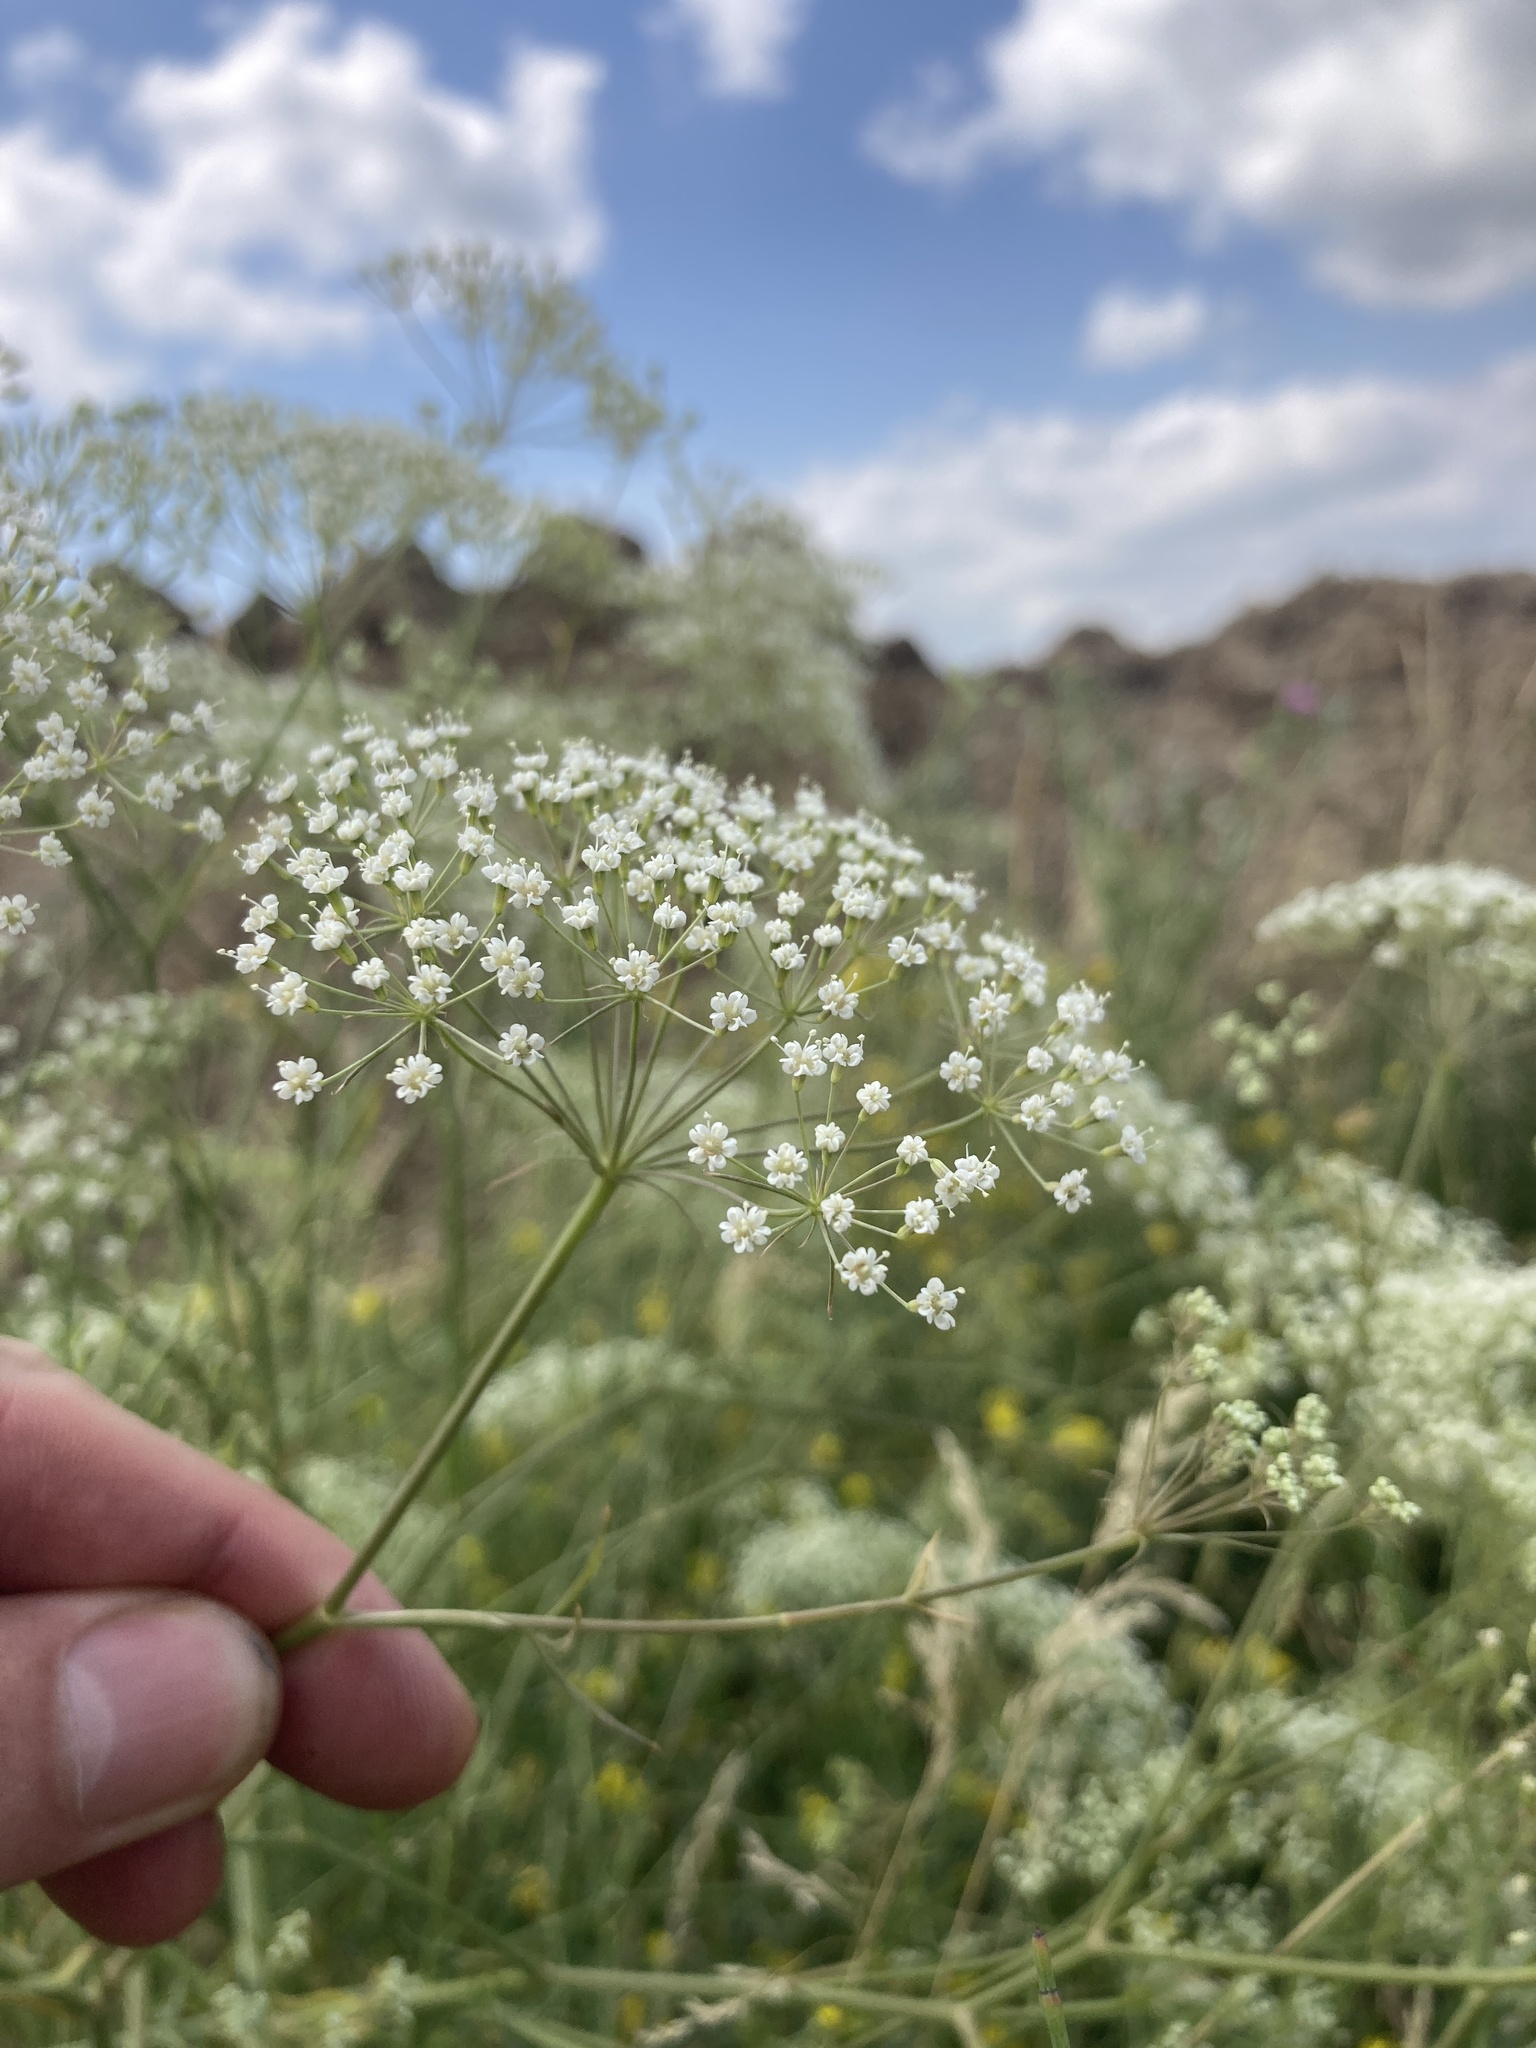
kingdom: Plantae
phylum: Tracheophyta
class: Magnoliopsida
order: Apiales
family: Apiaceae
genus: Falcaria
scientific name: Falcaria vulgaris
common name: Longleaf
